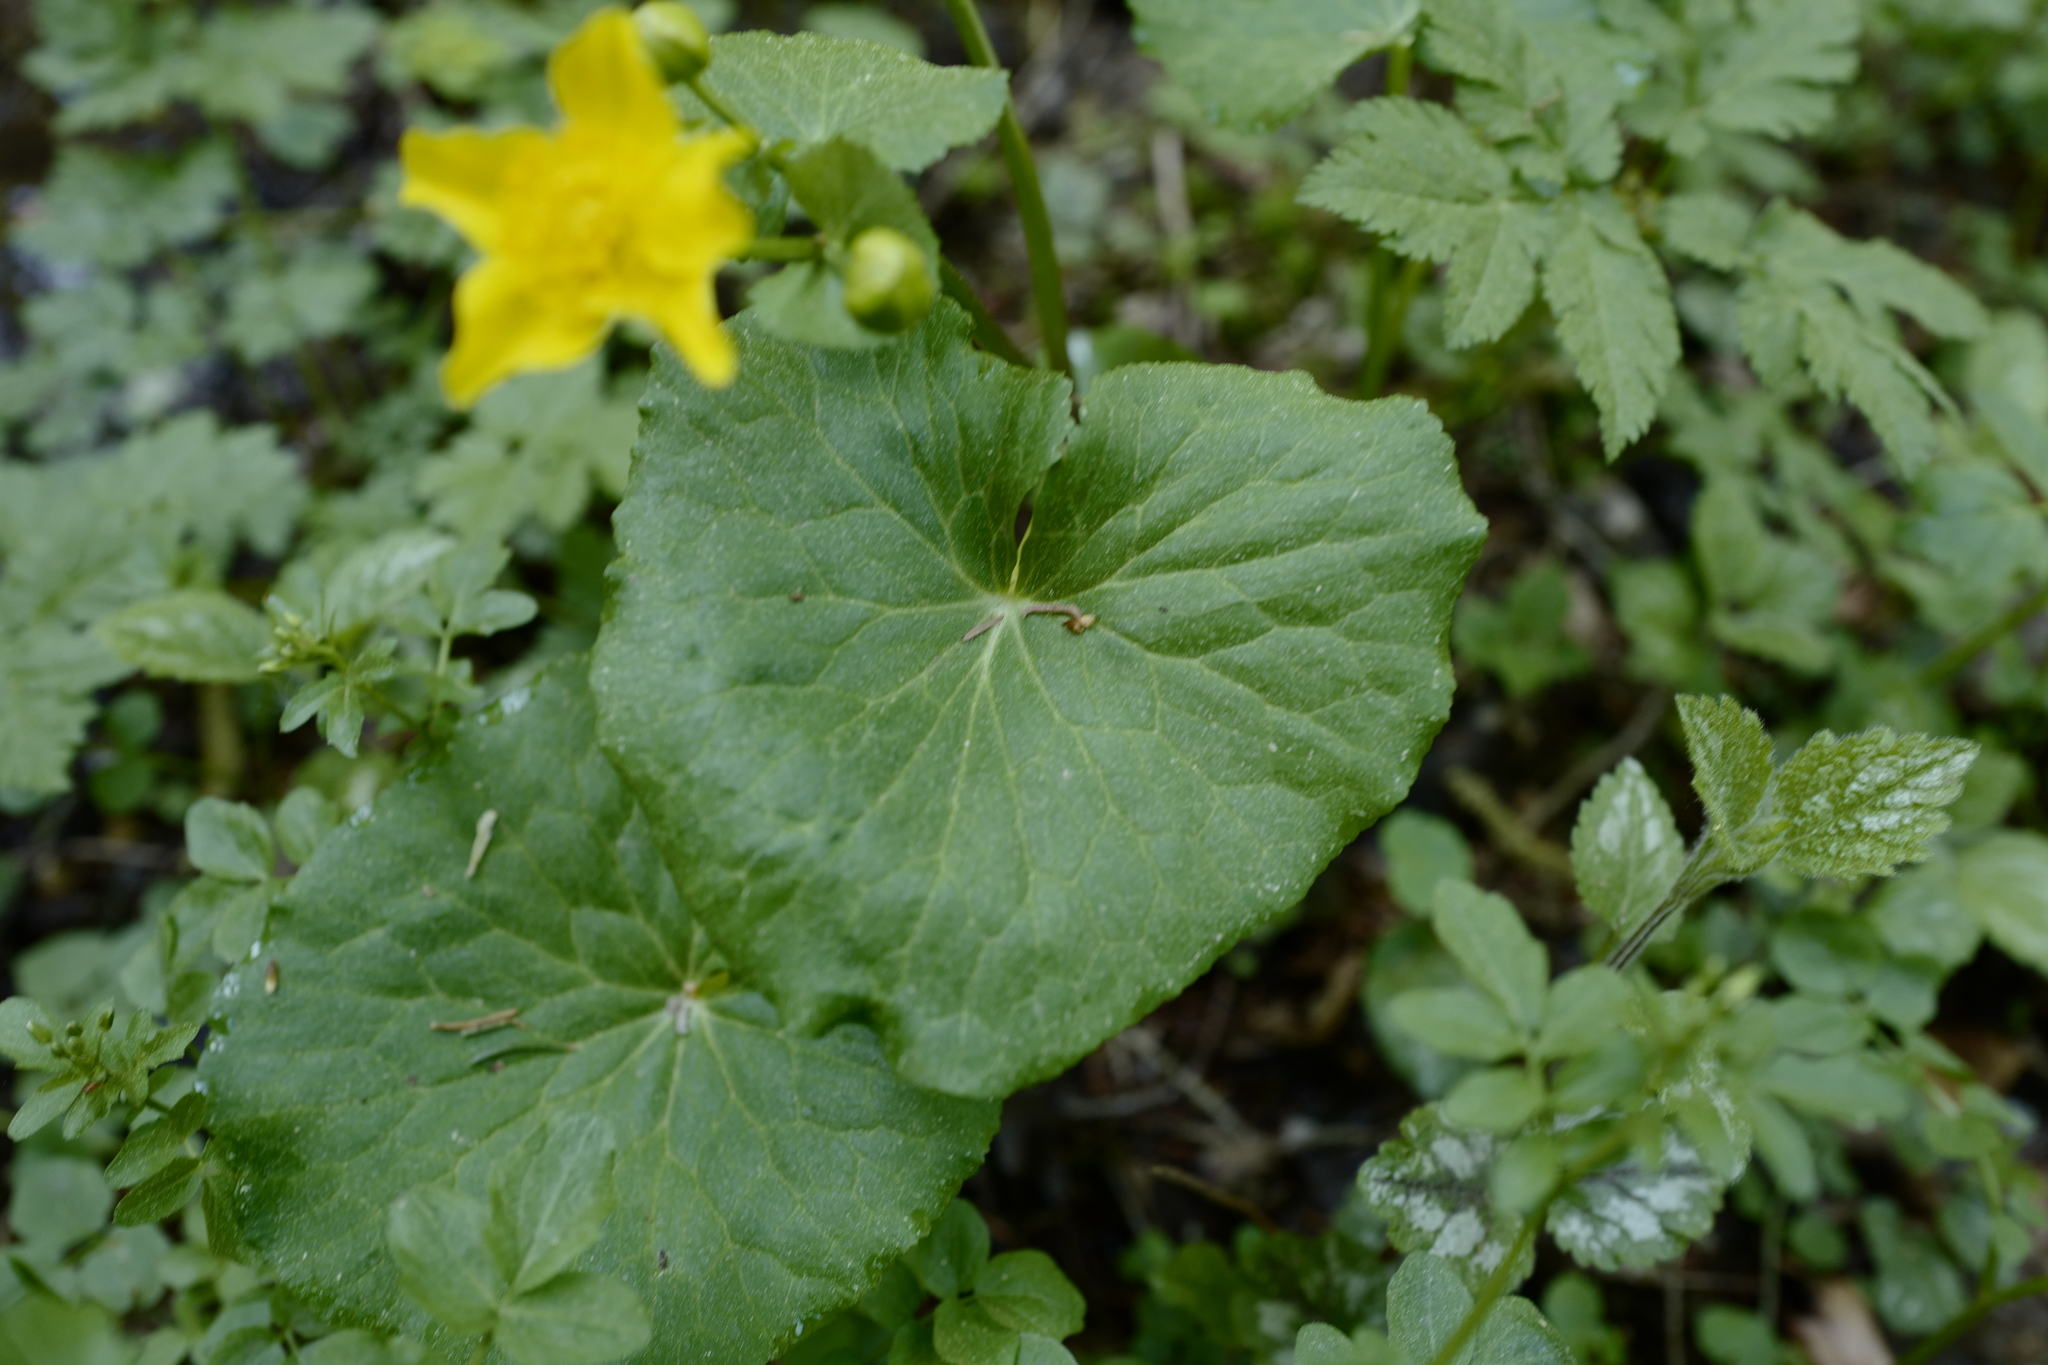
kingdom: Plantae
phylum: Tracheophyta
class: Magnoliopsida
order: Ranunculales
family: Ranunculaceae
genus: Caltha
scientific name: Caltha palustris
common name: Marsh marigold
